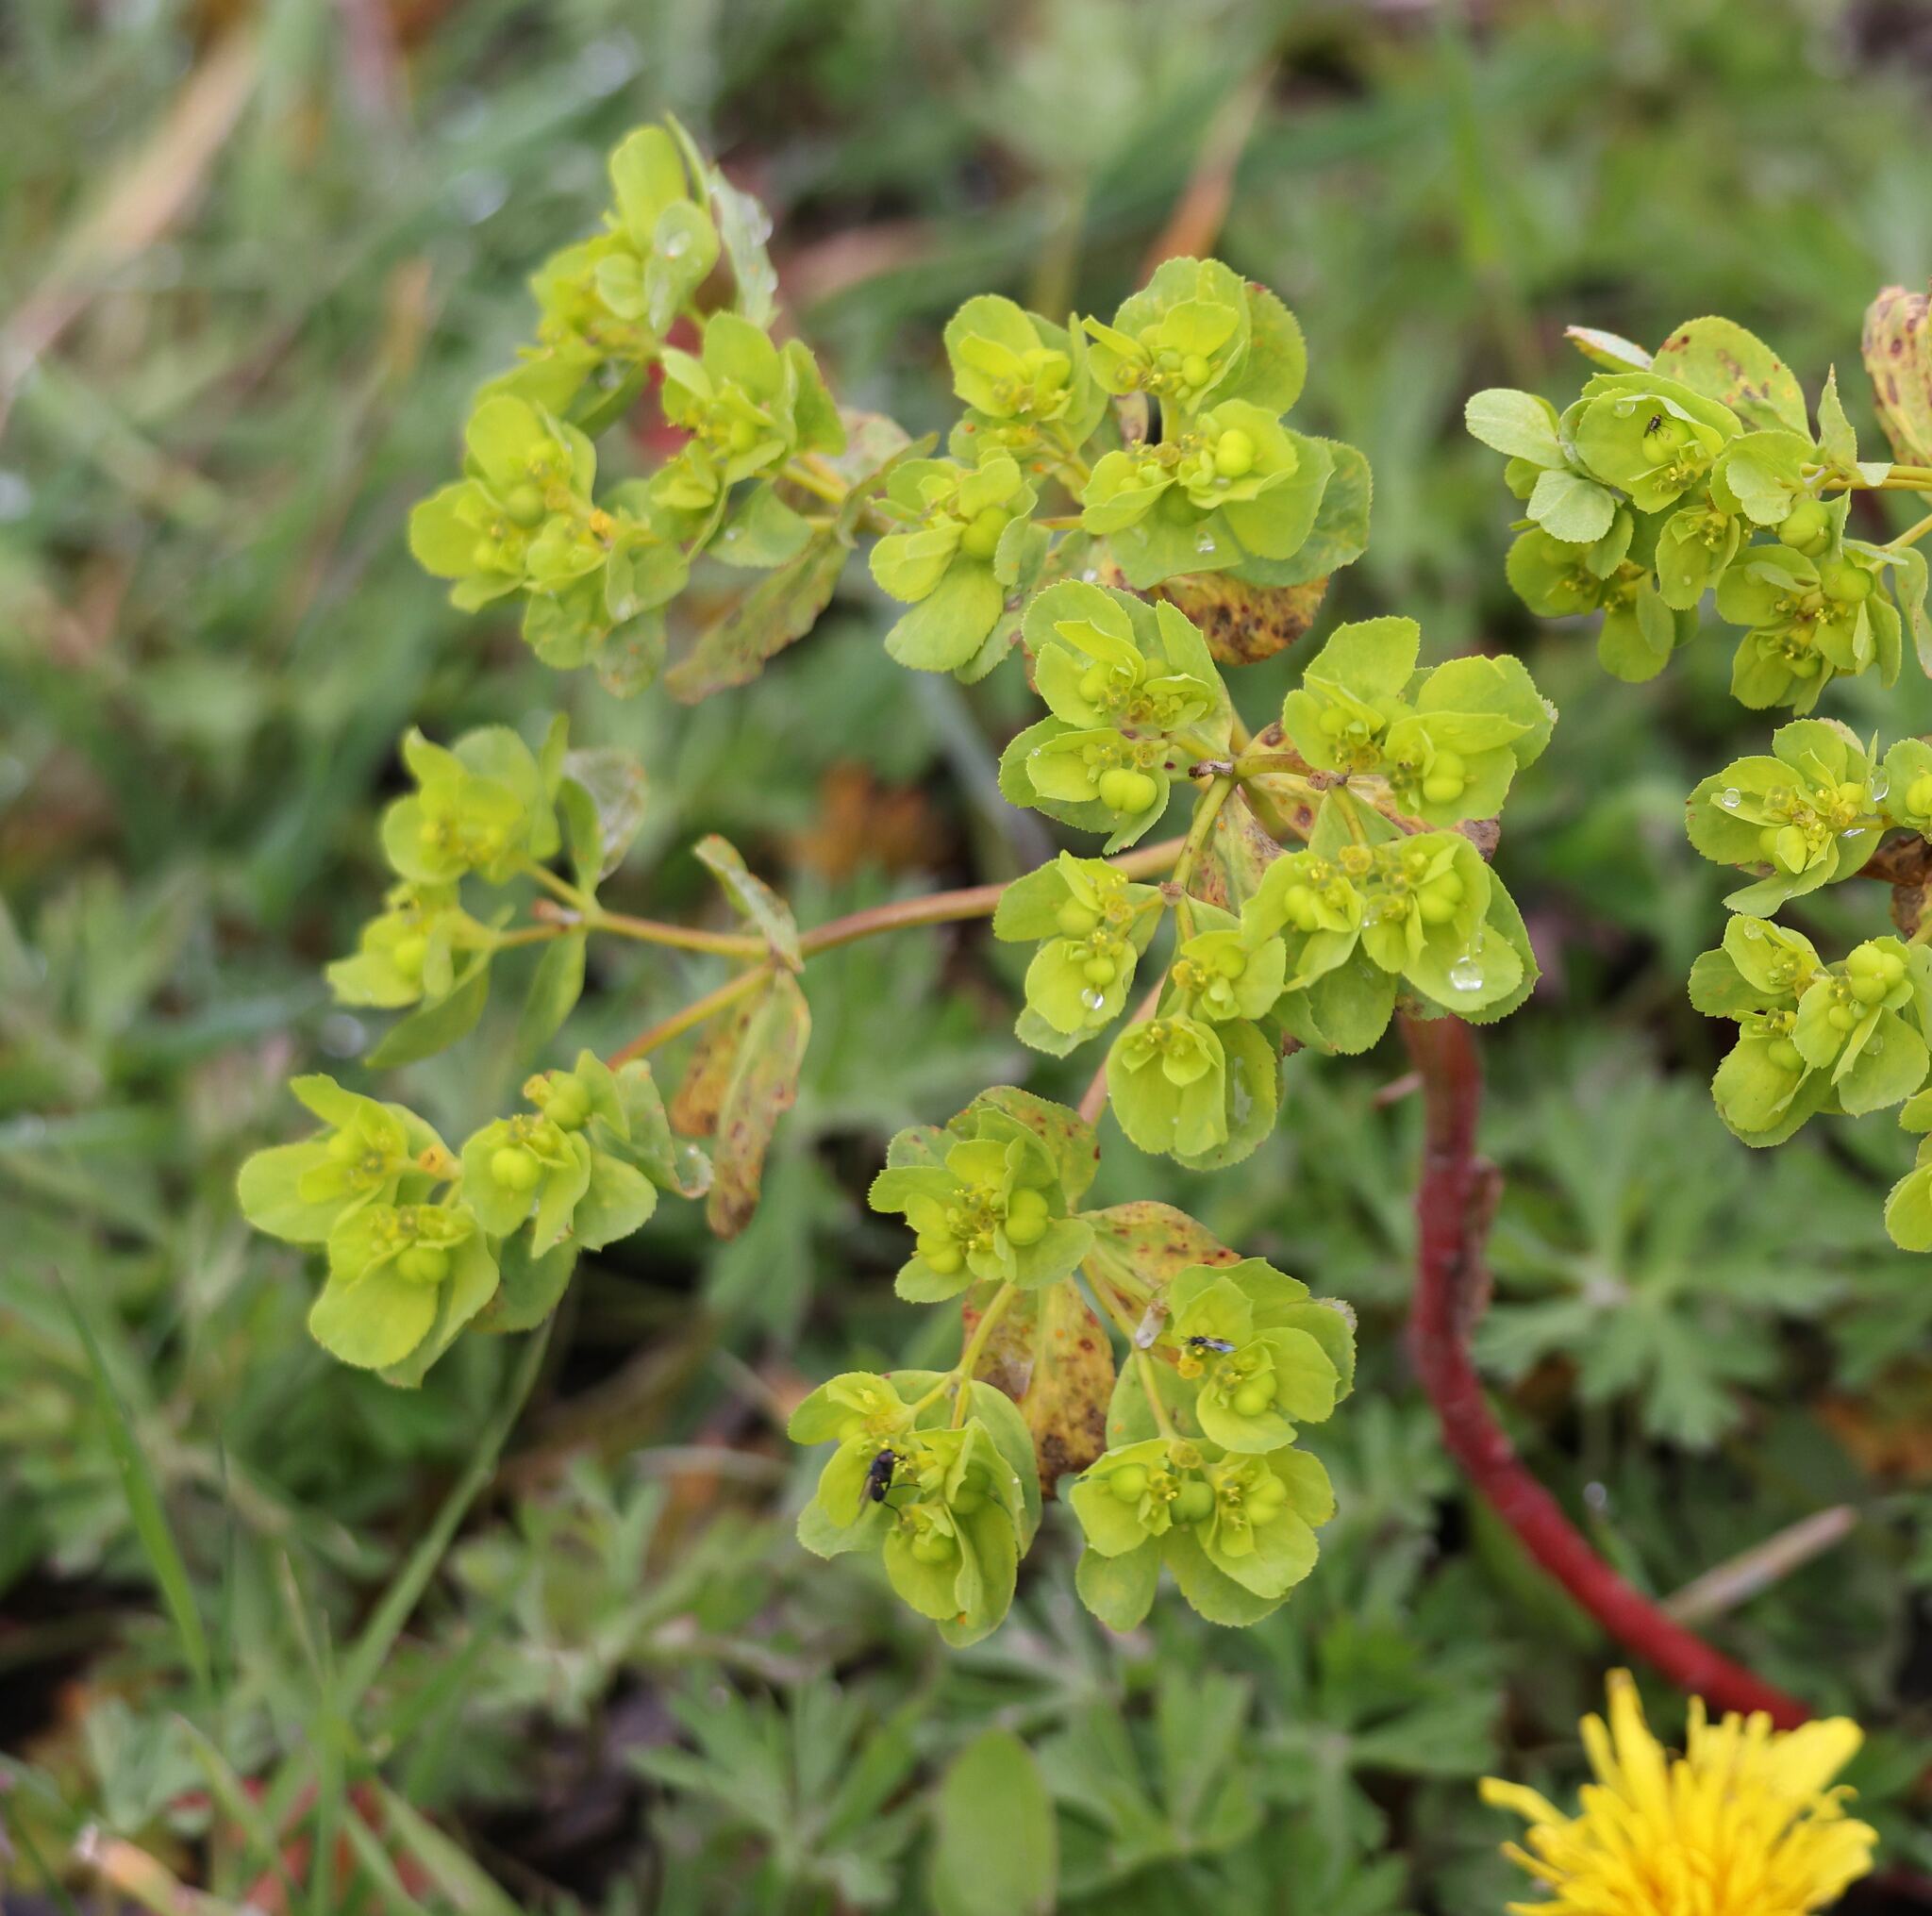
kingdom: Plantae
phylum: Tracheophyta
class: Magnoliopsida
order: Malpighiales
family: Euphorbiaceae
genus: Euphorbia
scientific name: Euphorbia helioscopia
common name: Sun spurge
